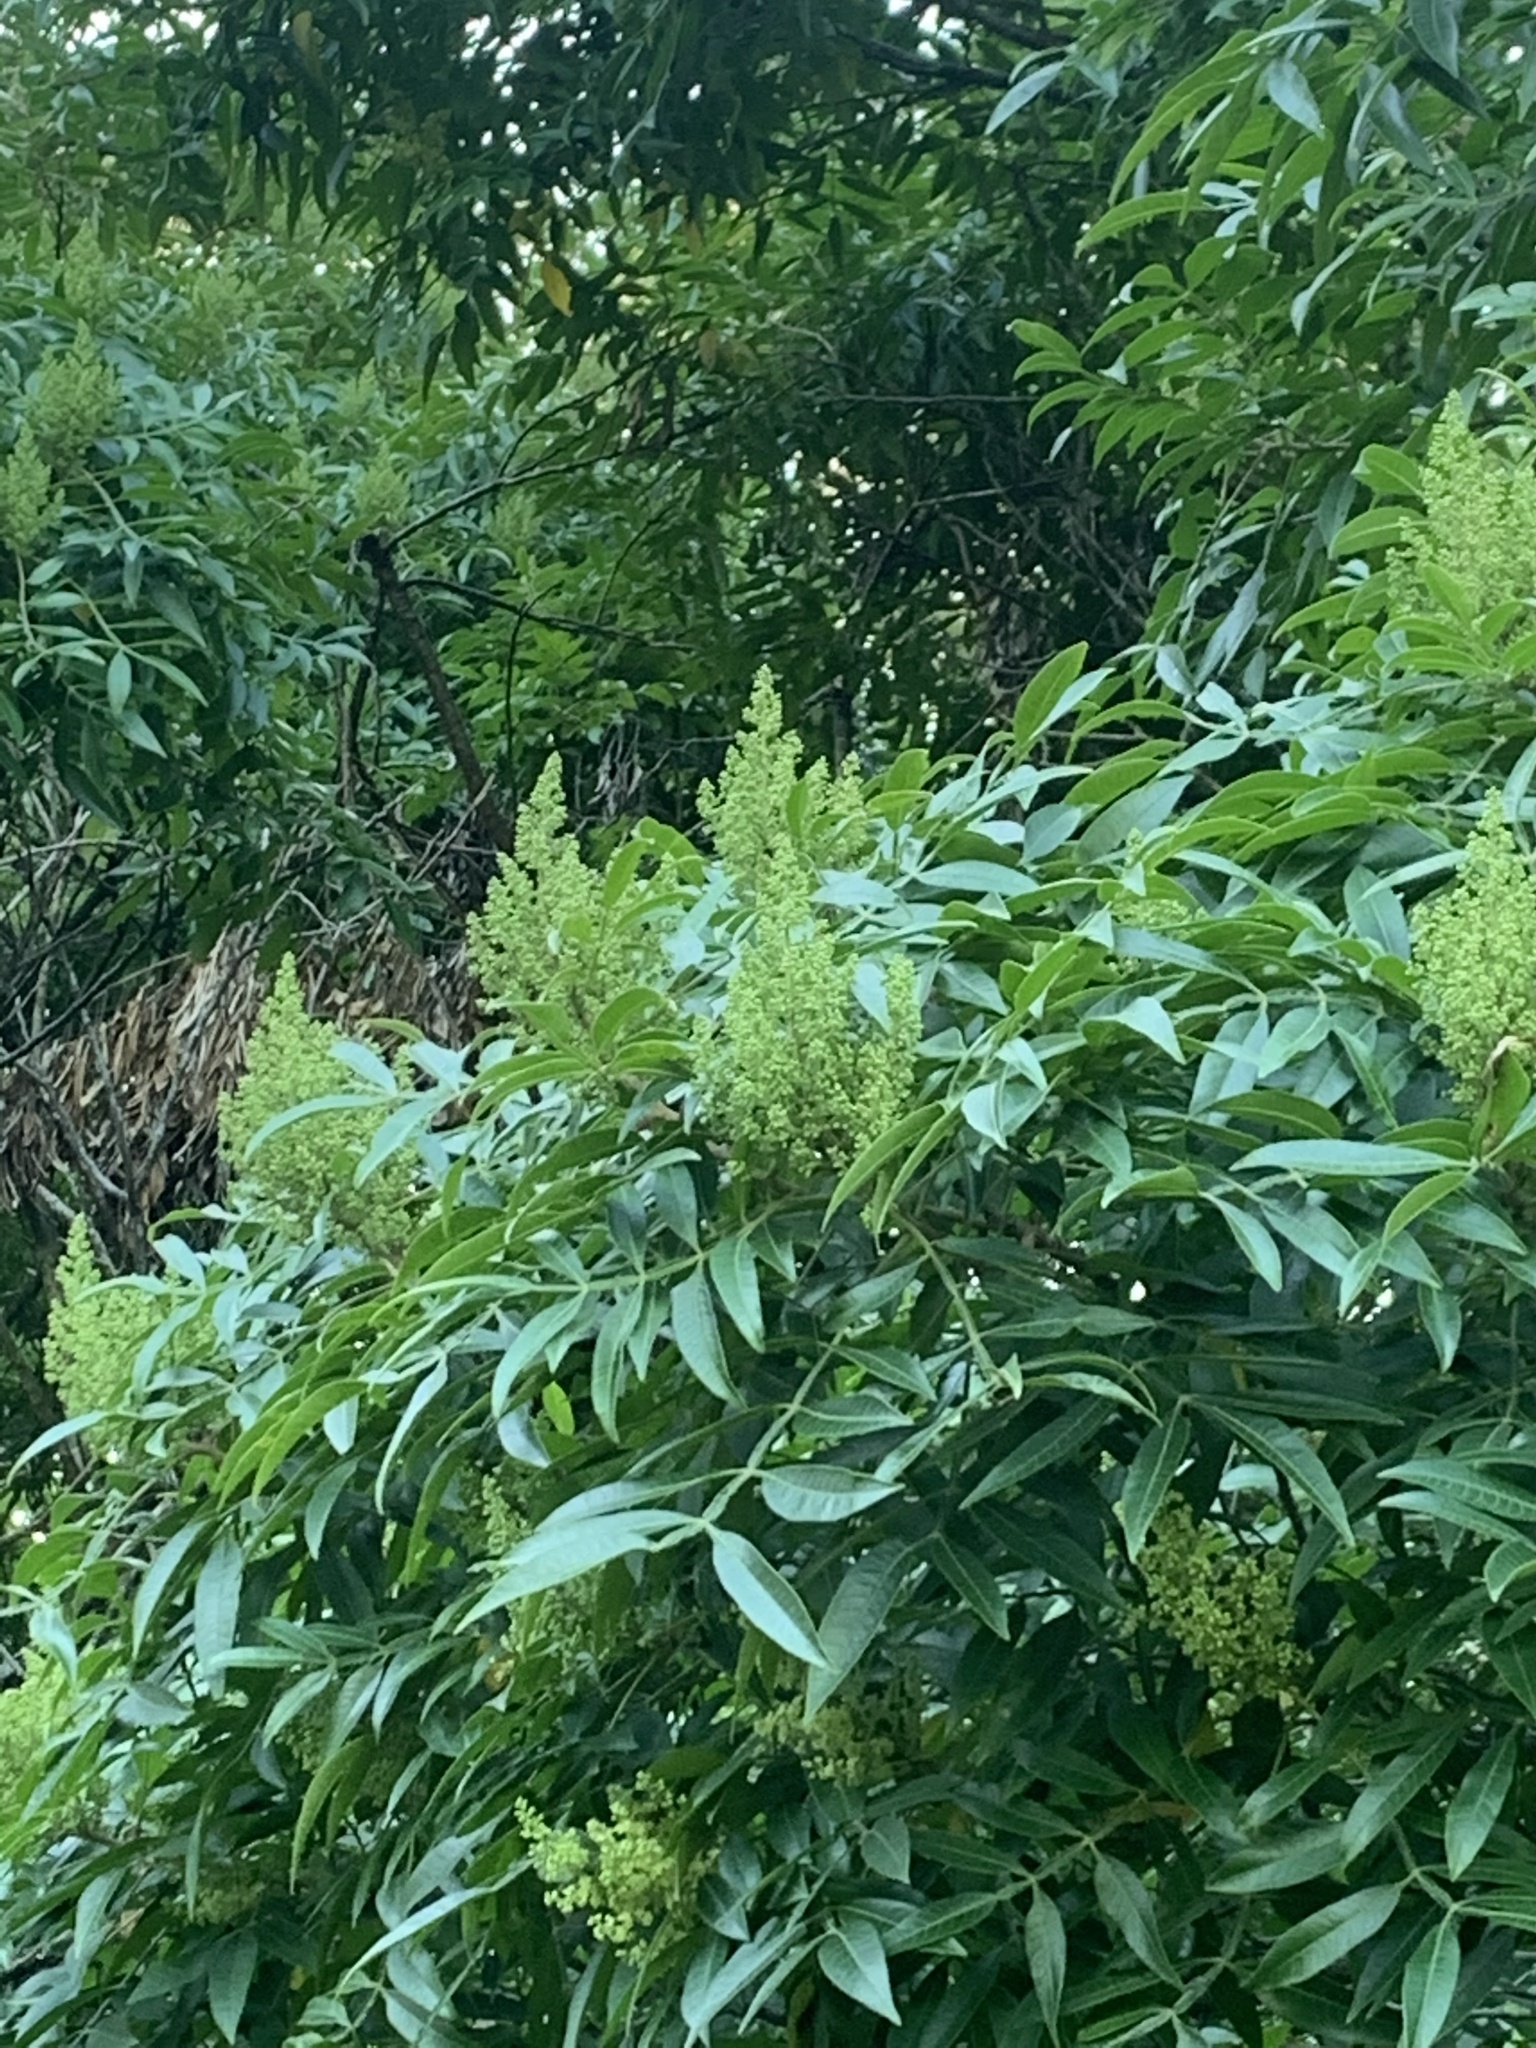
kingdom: Plantae
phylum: Tracheophyta
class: Magnoliopsida
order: Sapindales
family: Anacardiaceae
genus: Rhus
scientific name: Rhus copallina
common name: Shining sumac
